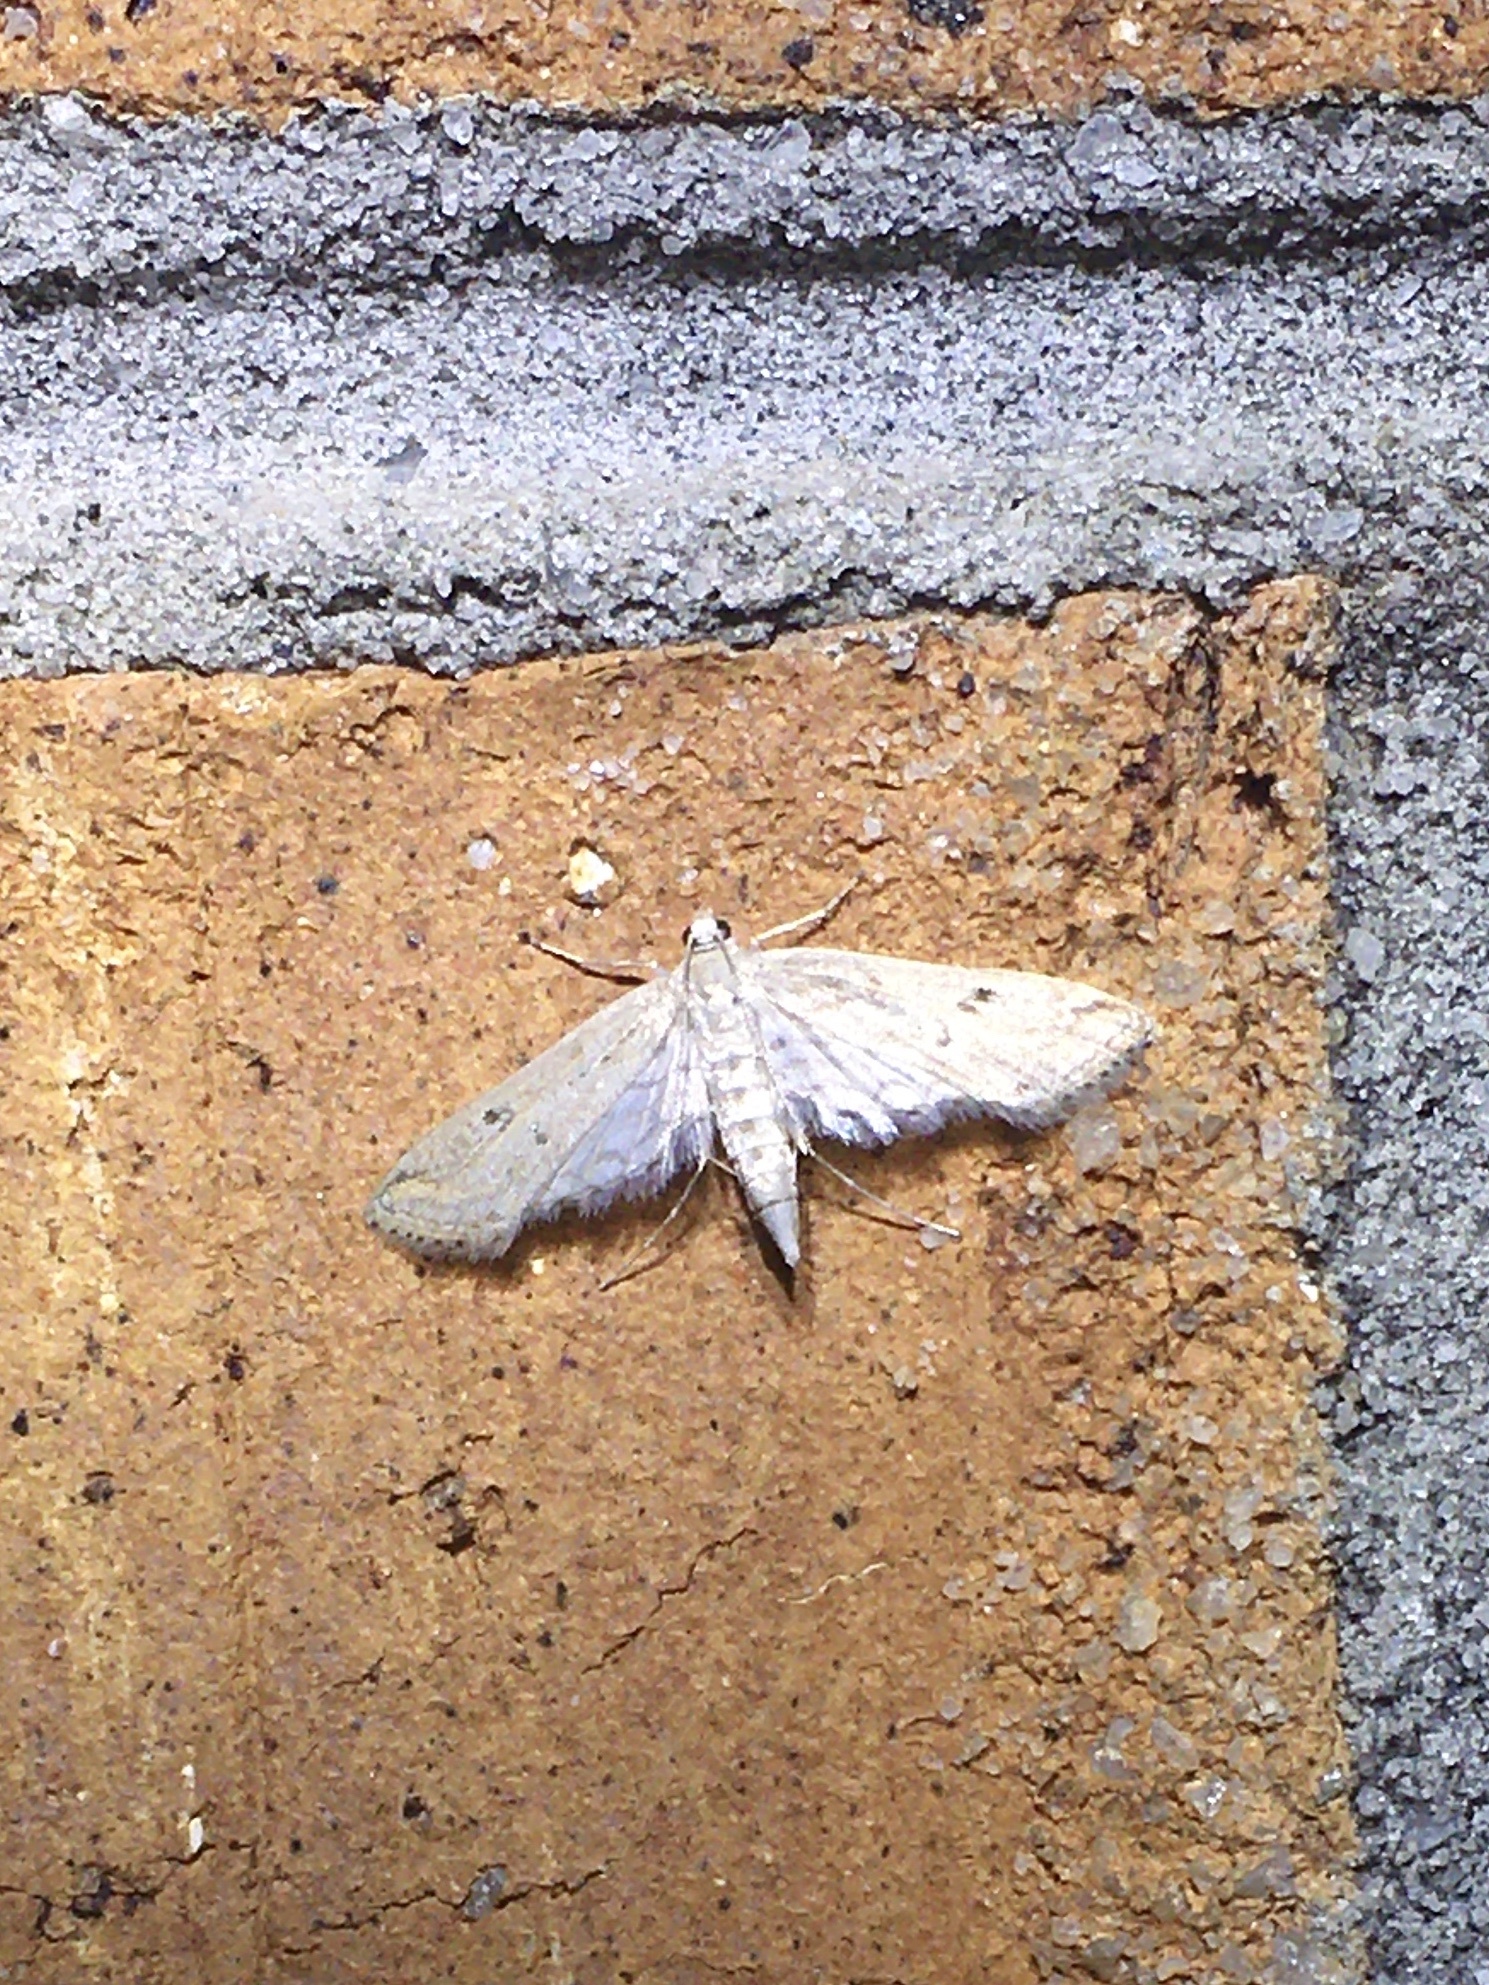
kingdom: Animalia
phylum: Arthropoda
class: Insecta
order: Lepidoptera
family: Crambidae
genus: Parapoynx
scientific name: Parapoynx allionealis
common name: Bladderwort casemaker
